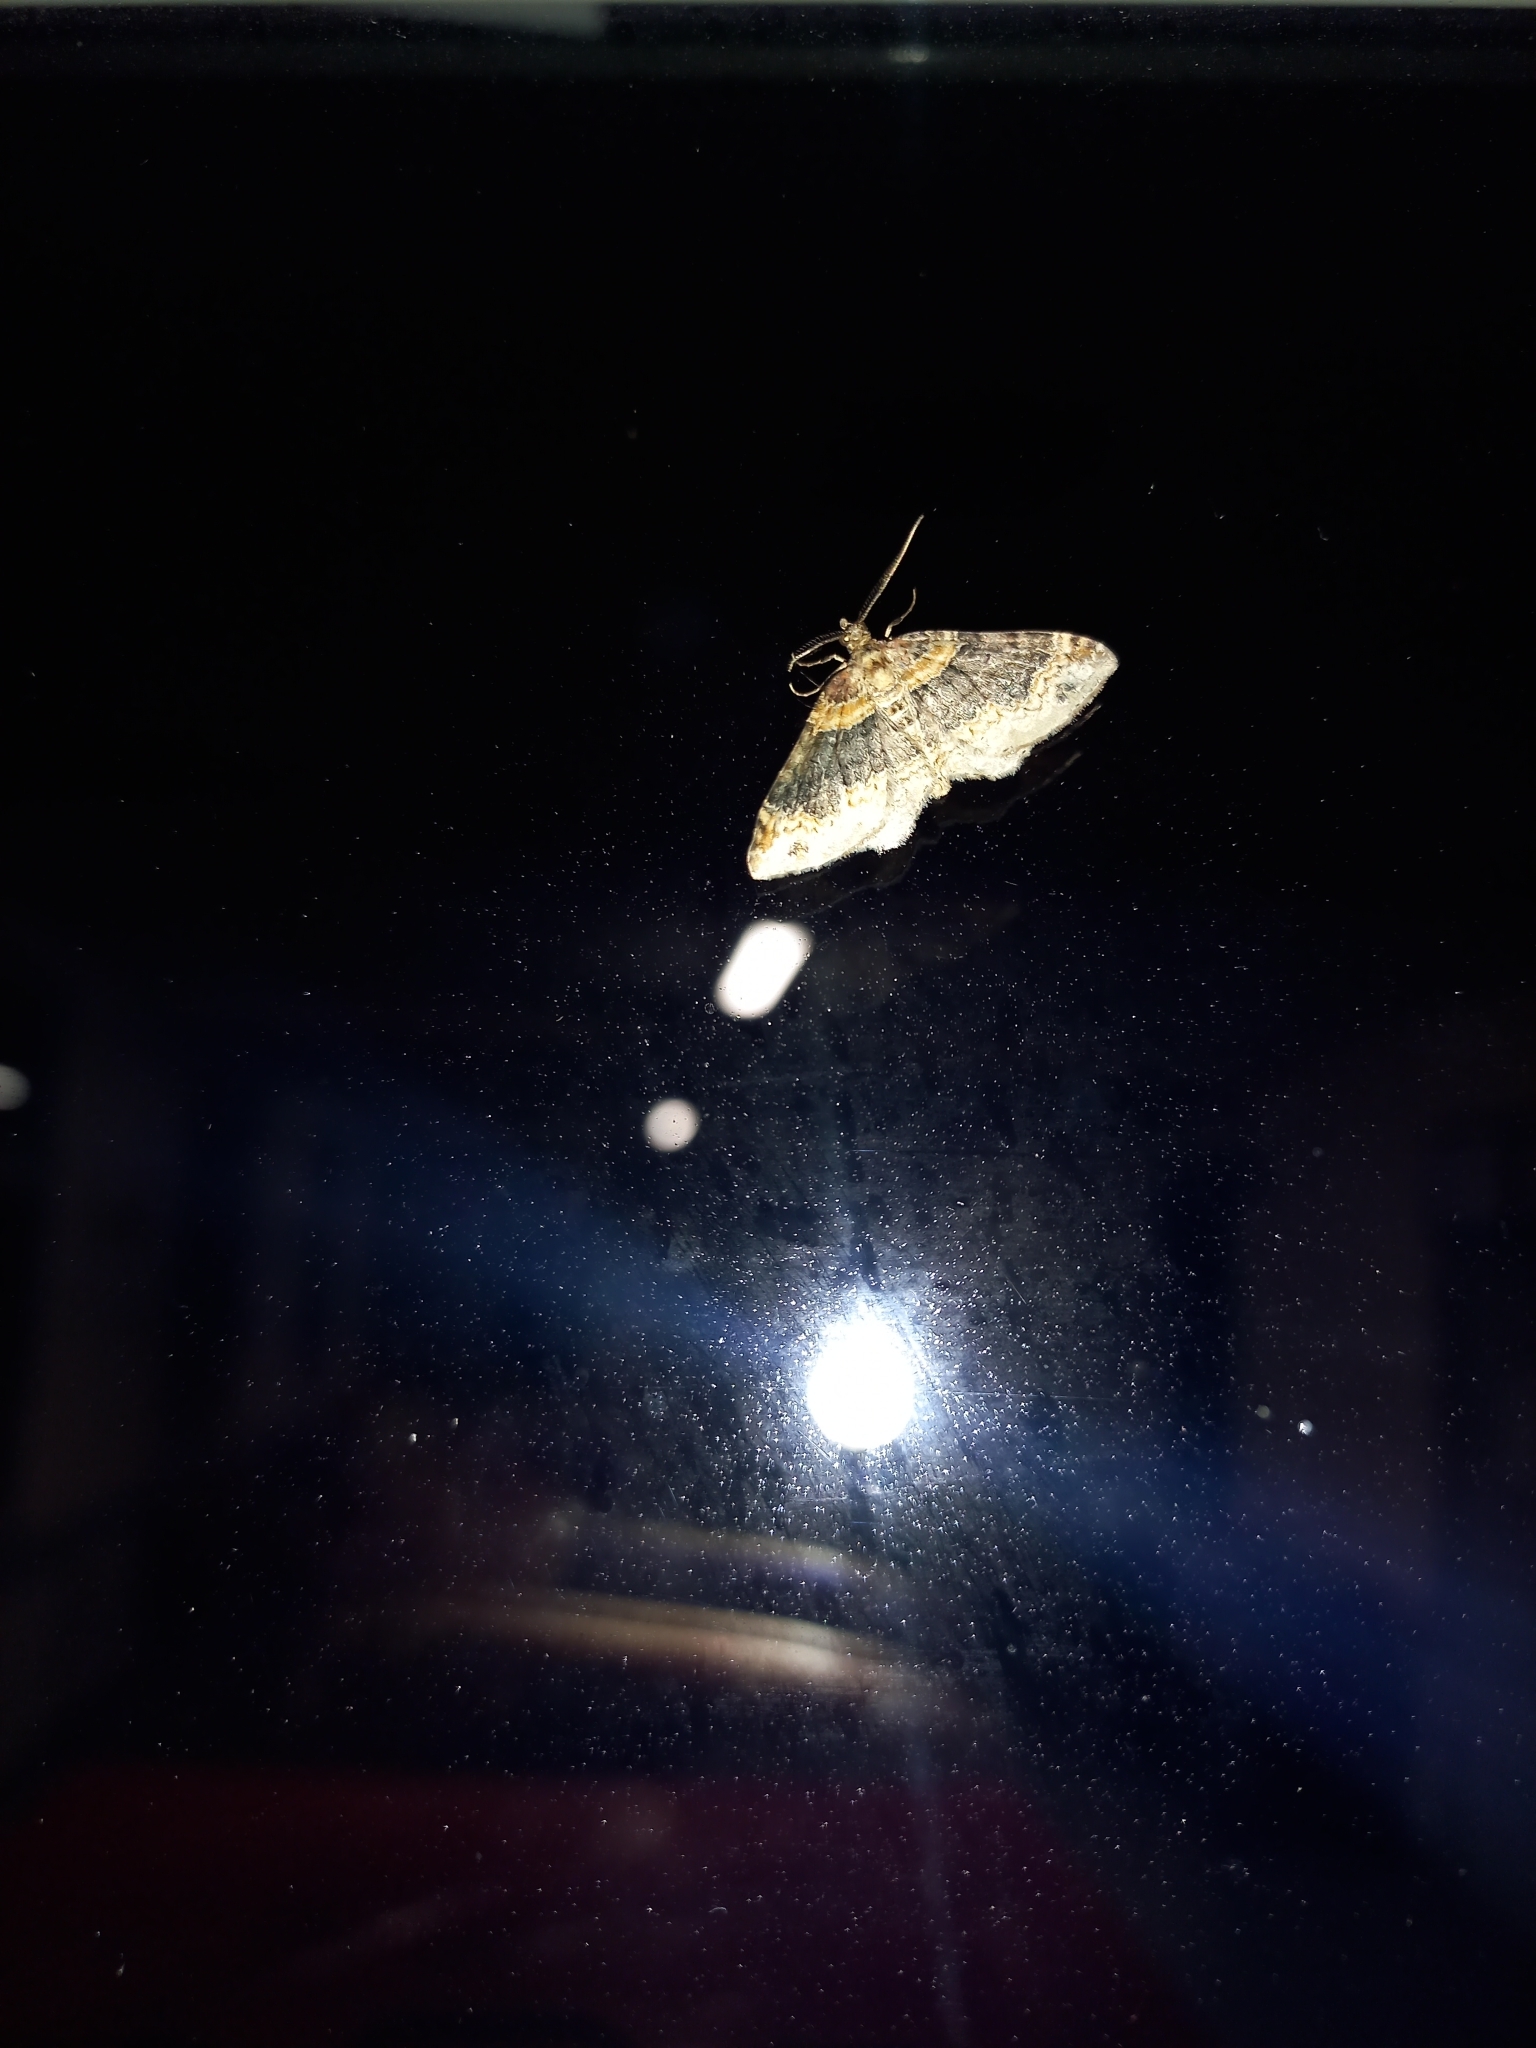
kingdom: Animalia
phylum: Arthropoda
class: Insecta
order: Lepidoptera
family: Geometridae
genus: Xanthorhoe
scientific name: Xanthorhoe ferrugata
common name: Dark-barred twin-spot carpet
